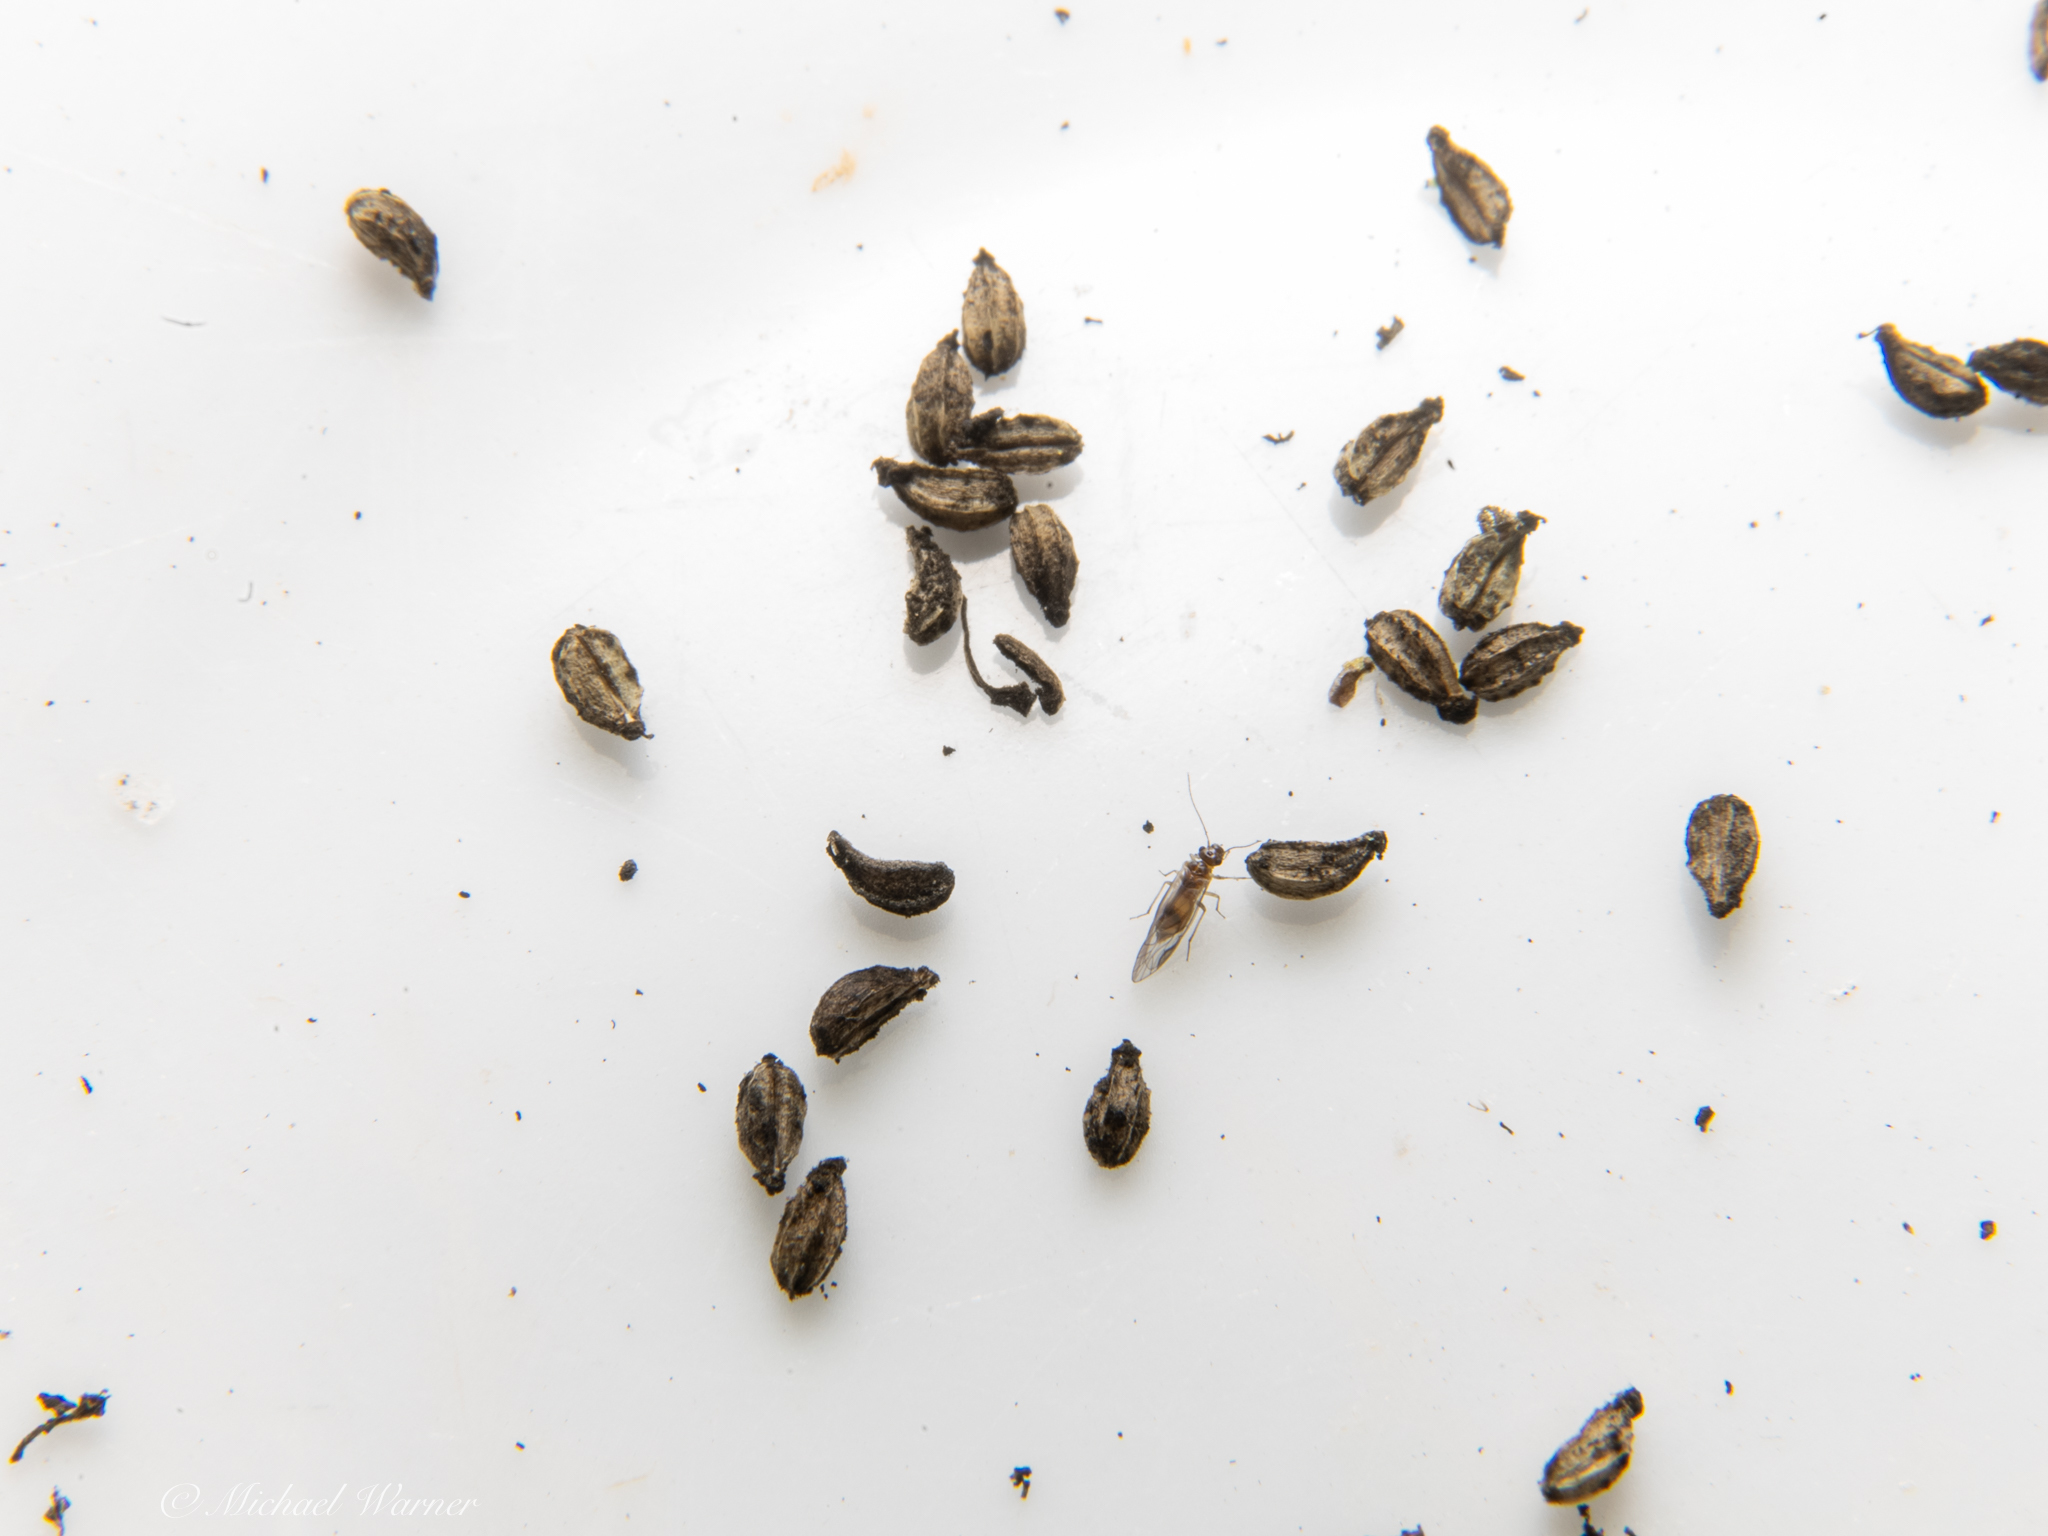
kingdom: Plantae
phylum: Tracheophyta
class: Magnoliopsida
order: Apiales
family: Apiaceae
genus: Conium
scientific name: Conium maculatum
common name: Hemlock
